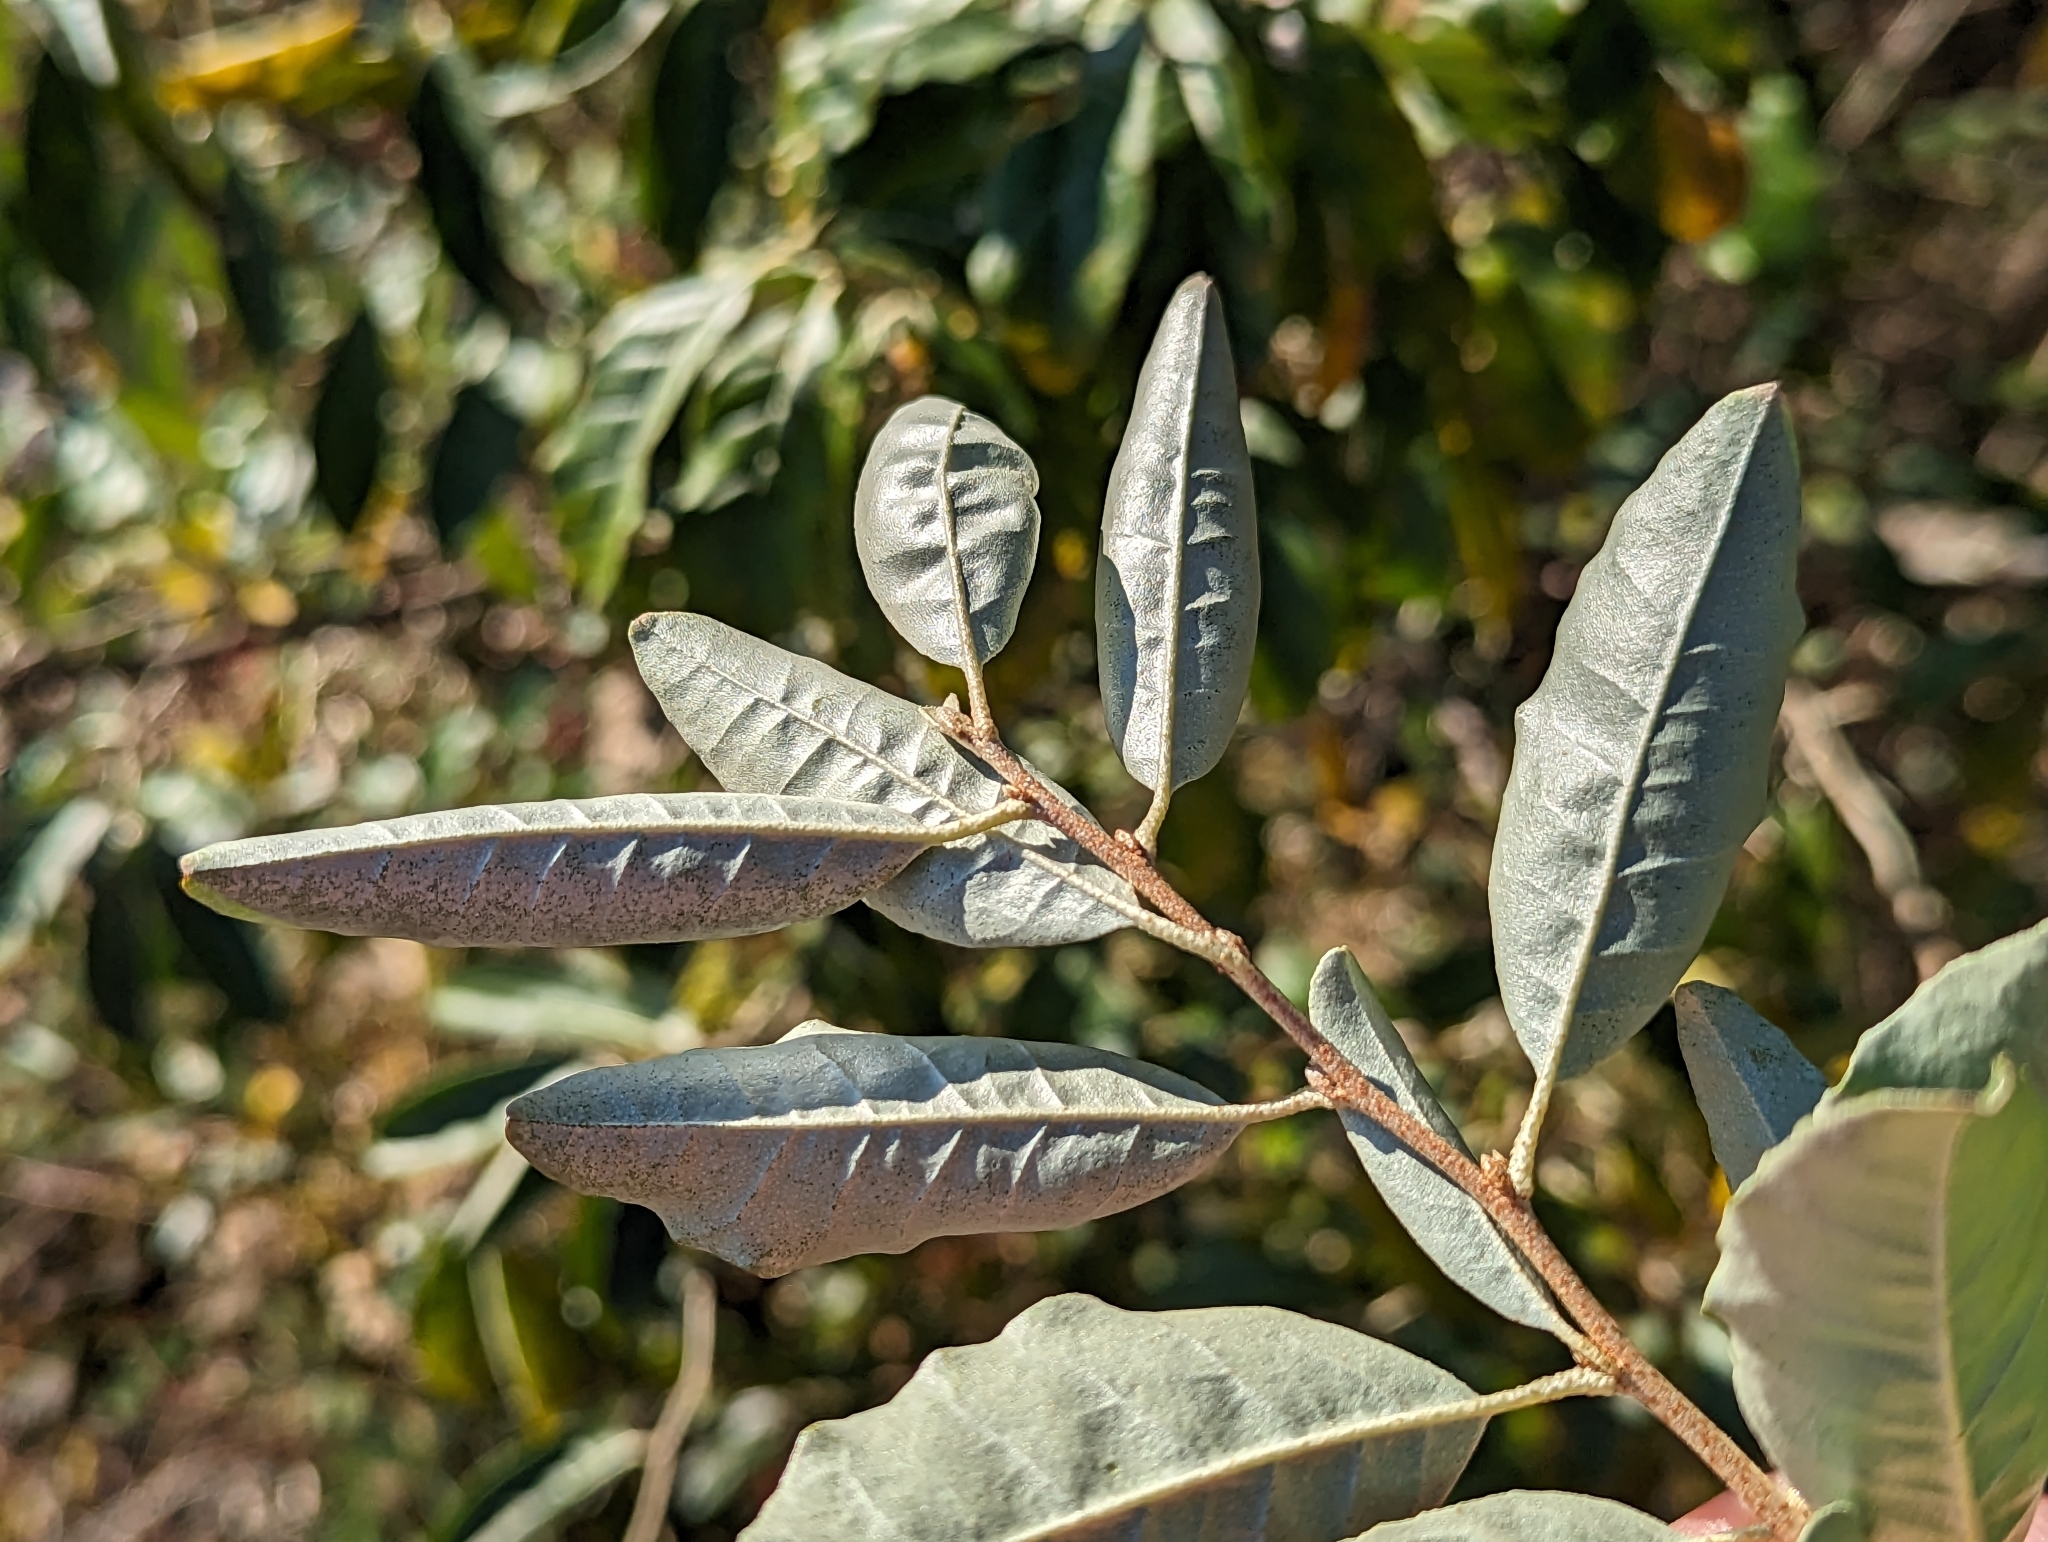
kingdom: Plantae
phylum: Tracheophyta
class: Magnoliopsida
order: Rosales
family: Elaeagnaceae
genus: Elaeagnus
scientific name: Elaeagnus umbellata
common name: Autumn olive
